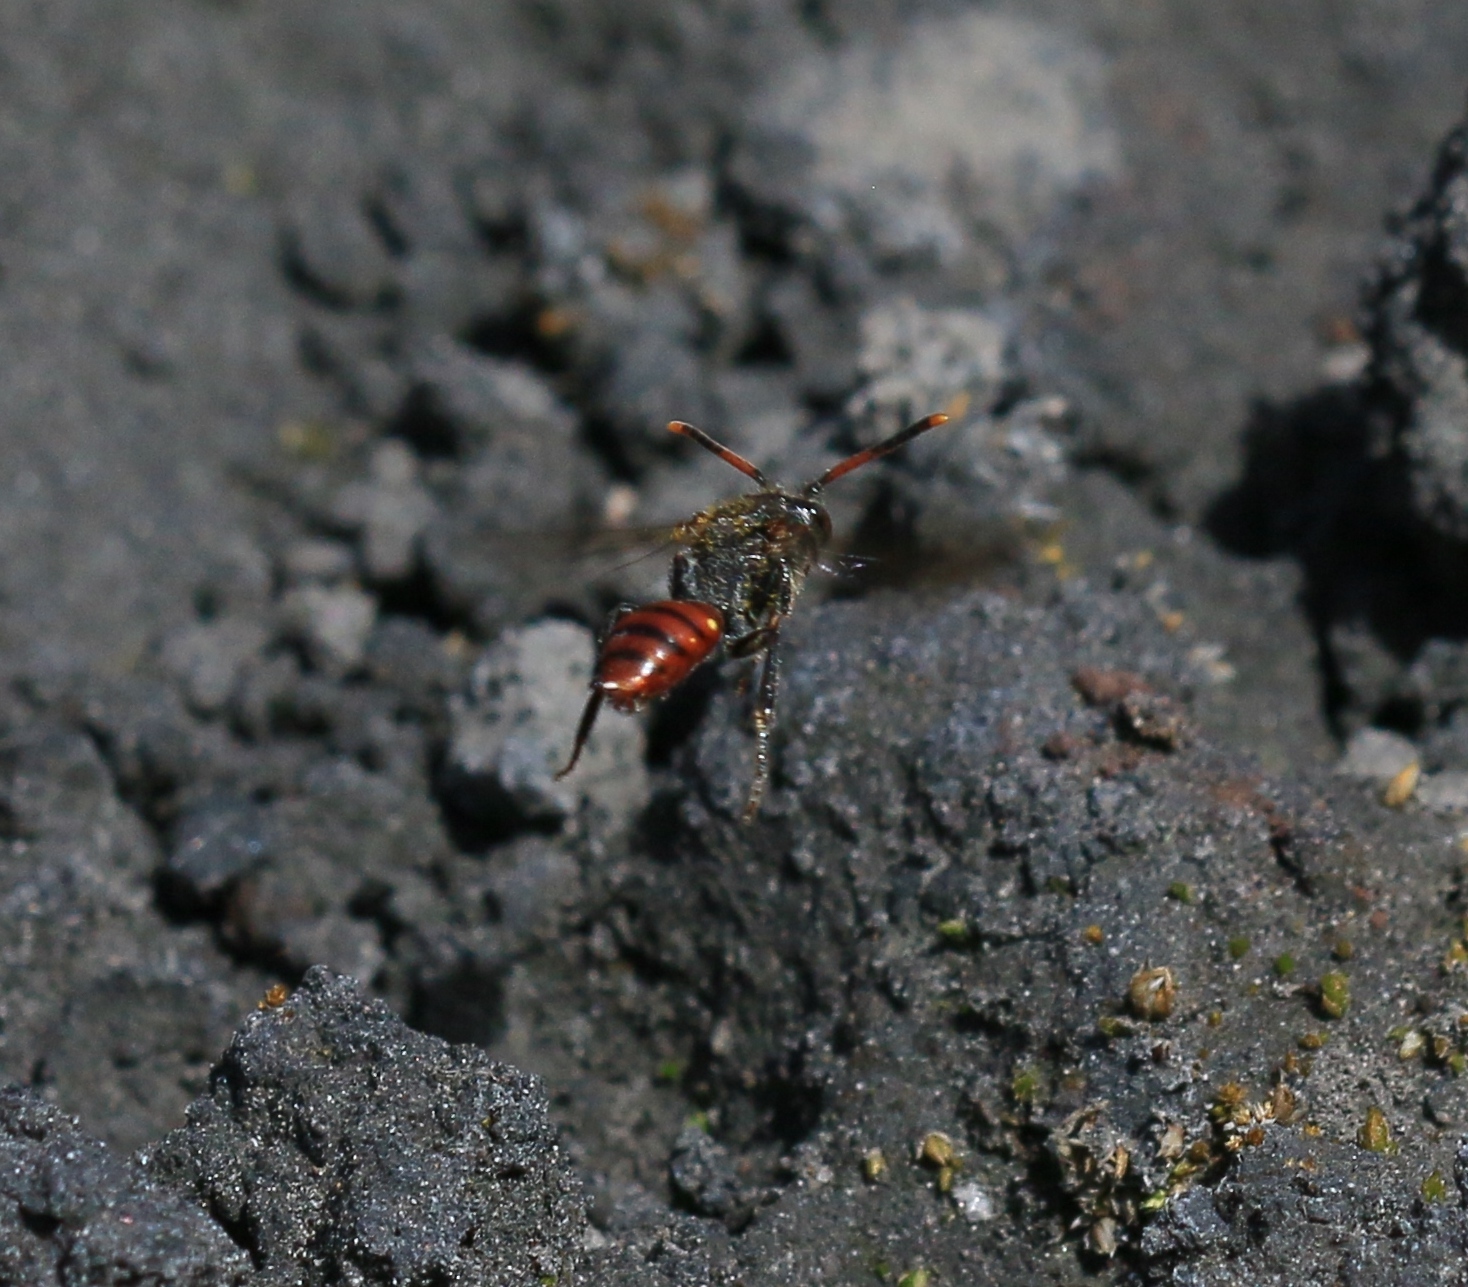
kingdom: Animalia
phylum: Arthropoda
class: Insecta
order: Hymenoptera
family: Apidae
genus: Nomada
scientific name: Nomada fabriciana
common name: Fabricius' nomad bee
